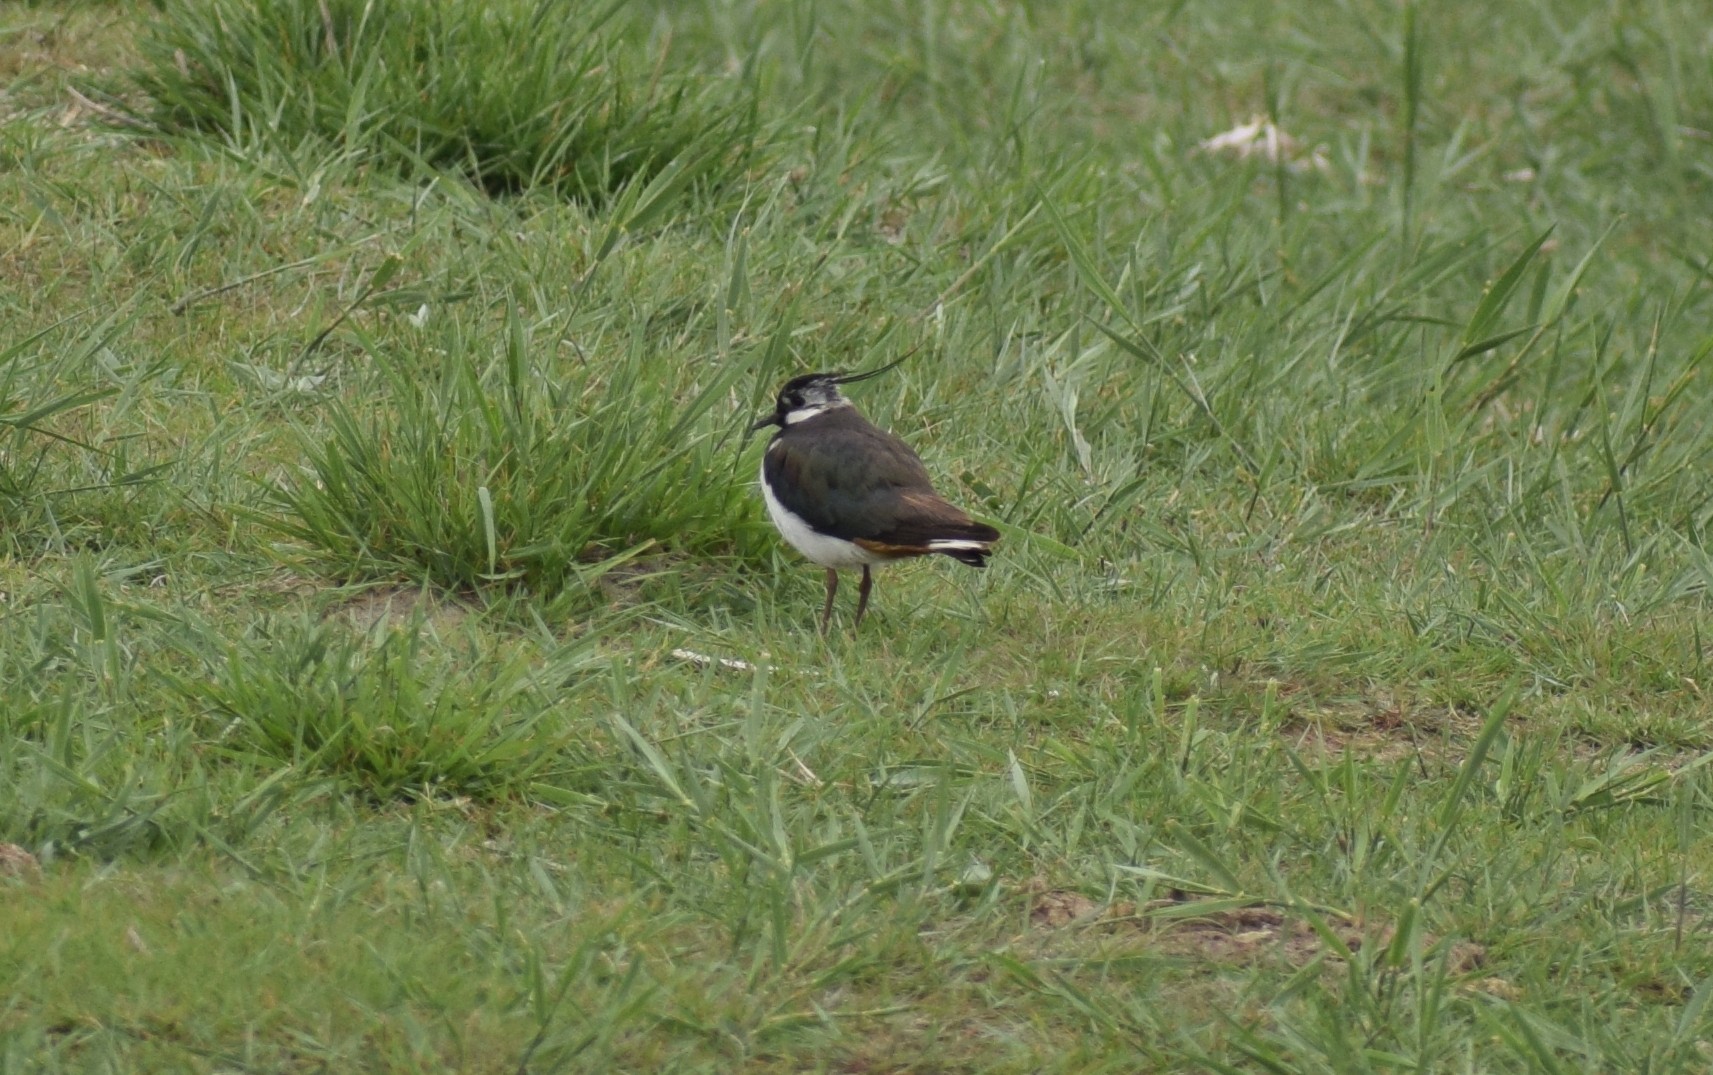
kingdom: Animalia
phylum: Chordata
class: Aves
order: Charadriiformes
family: Charadriidae
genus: Vanellus
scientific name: Vanellus vanellus
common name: Northern lapwing
